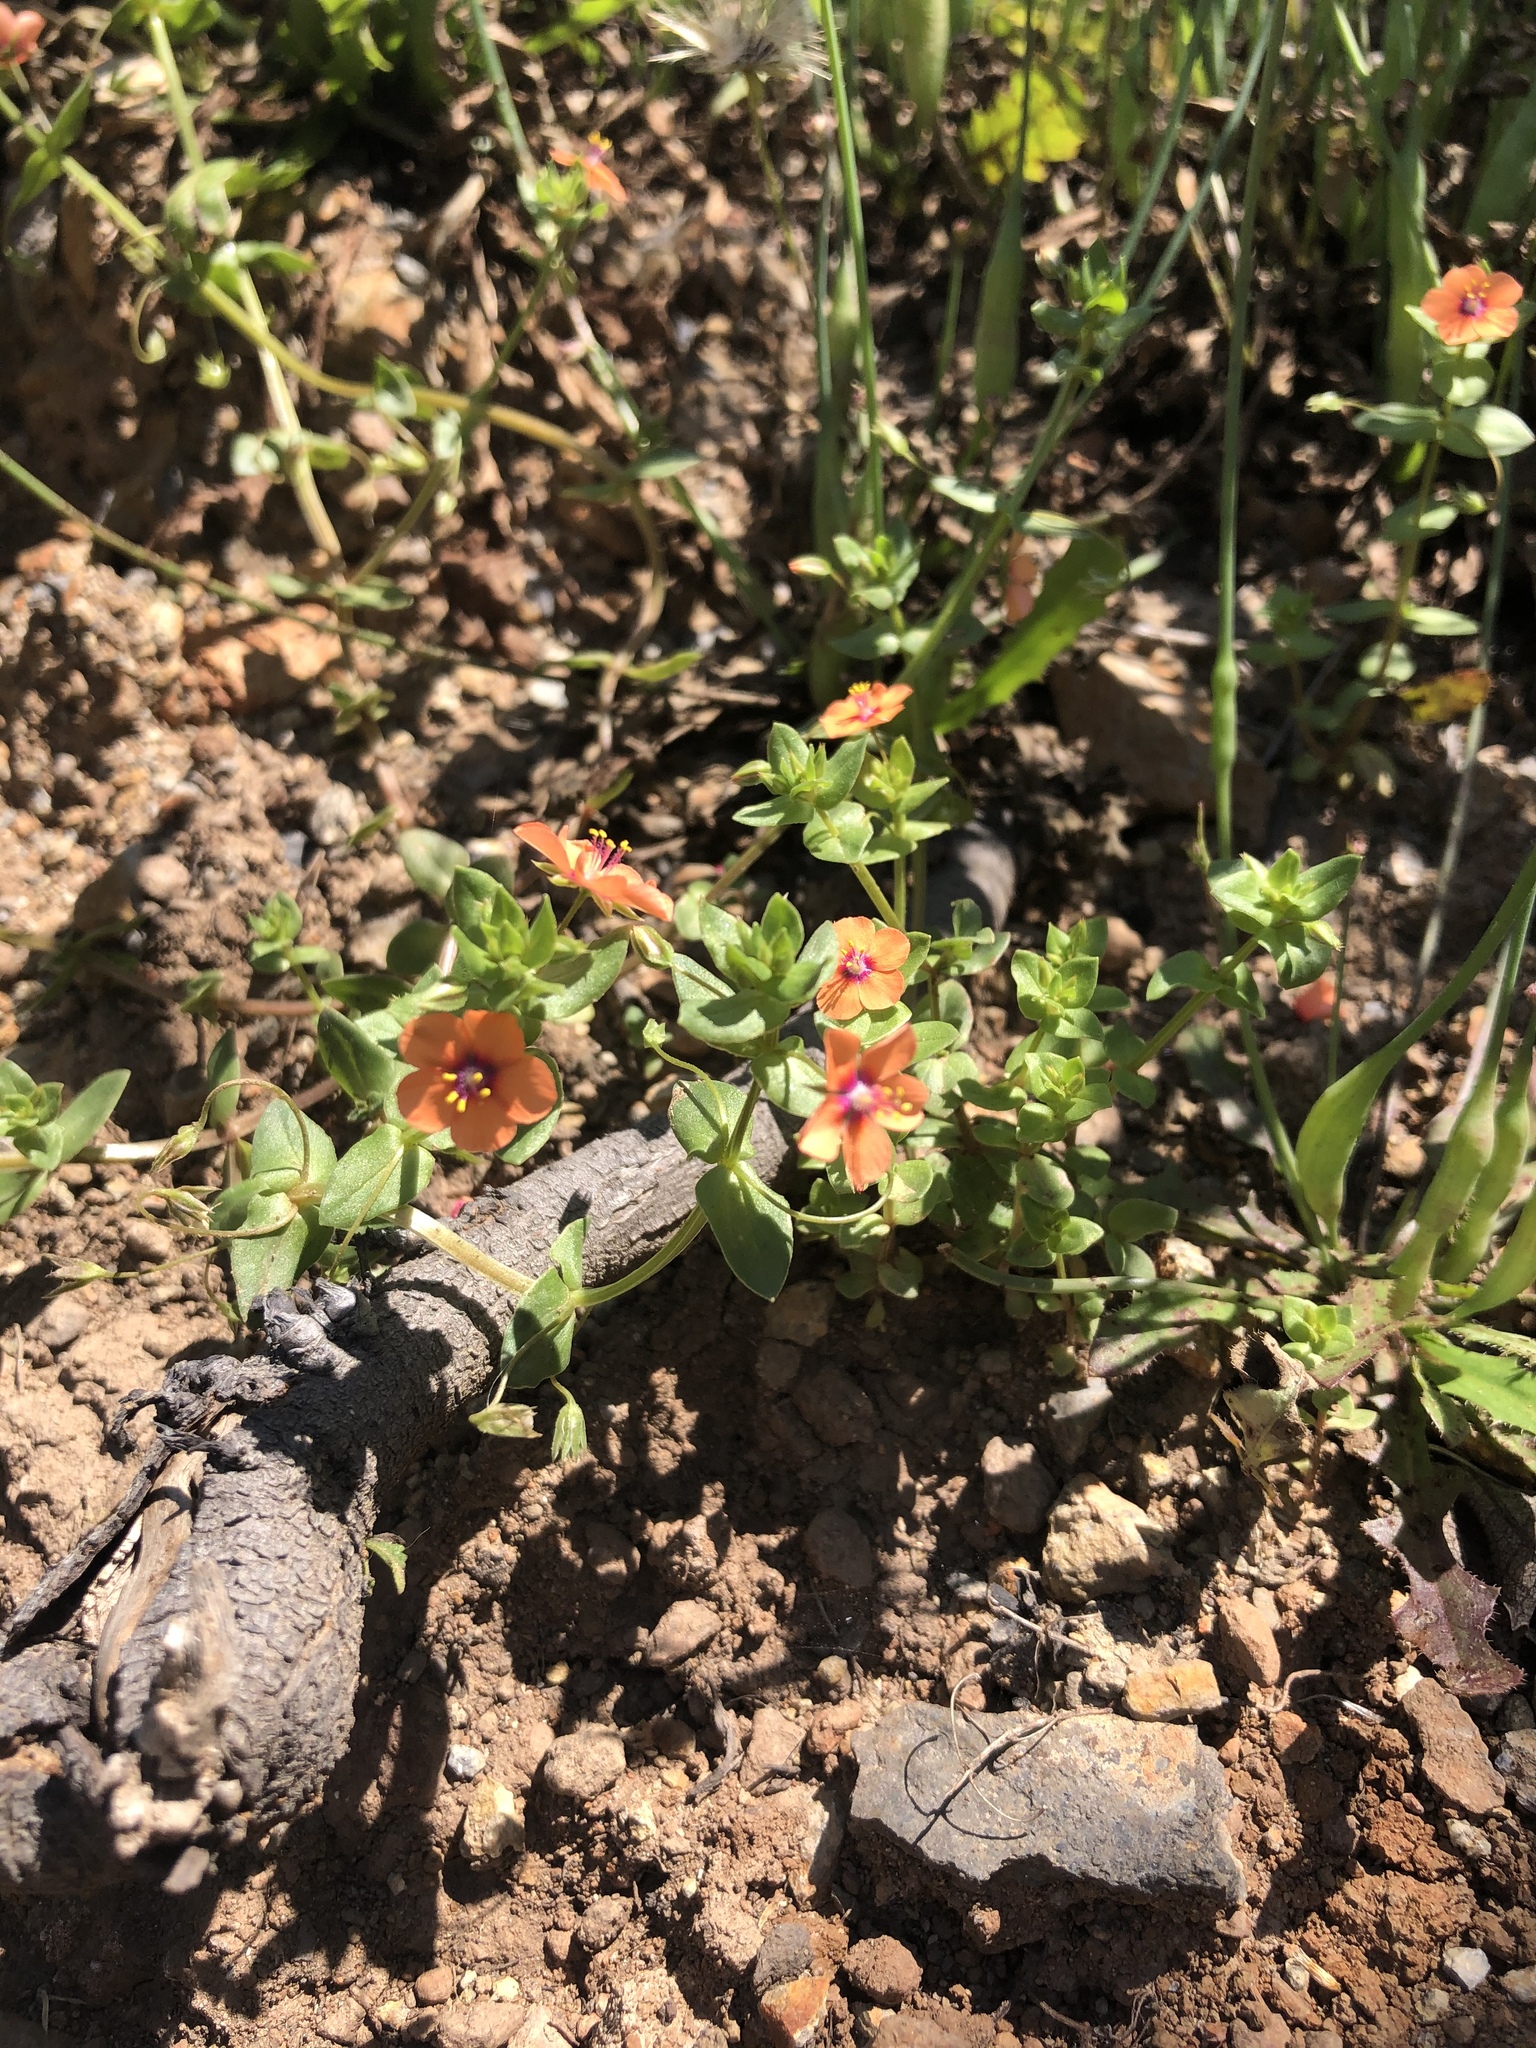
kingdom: Plantae
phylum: Tracheophyta
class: Magnoliopsida
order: Ericales
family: Primulaceae
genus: Lysimachia
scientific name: Lysimachia arvensis
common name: Scarlet pimpernel
